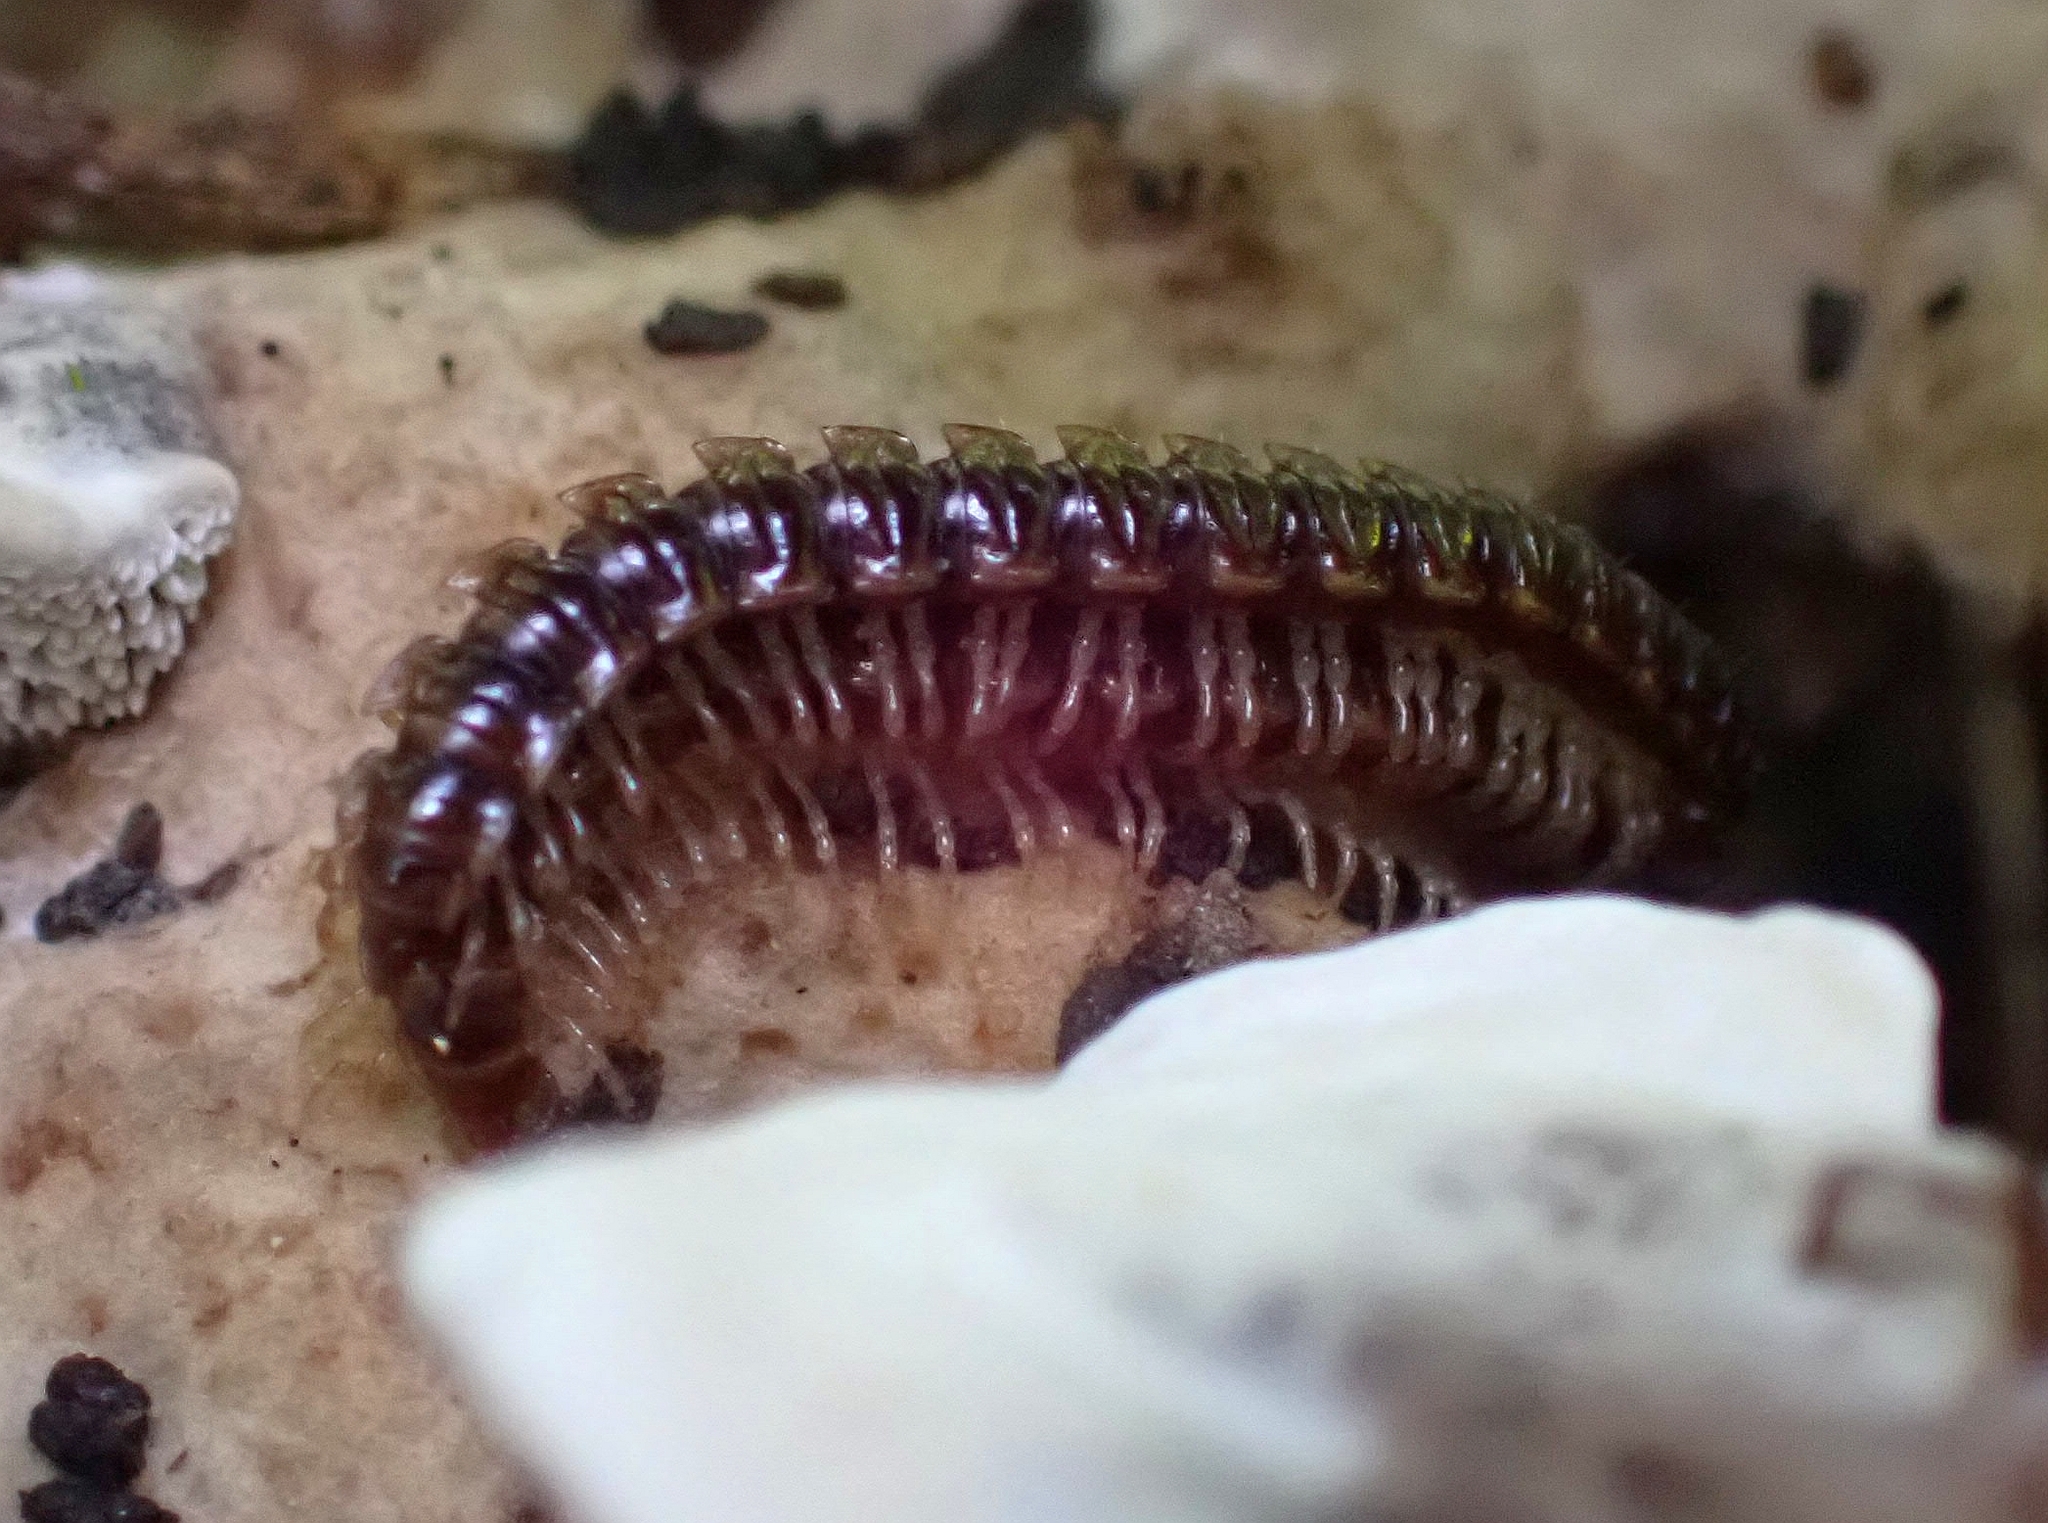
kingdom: Animalia
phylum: Arthropoda
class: Diplopoda
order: Polydesmida
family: Paradoxosomatidae
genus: Oxidus
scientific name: Oxidus gracilis
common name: Greenhouse millipede
